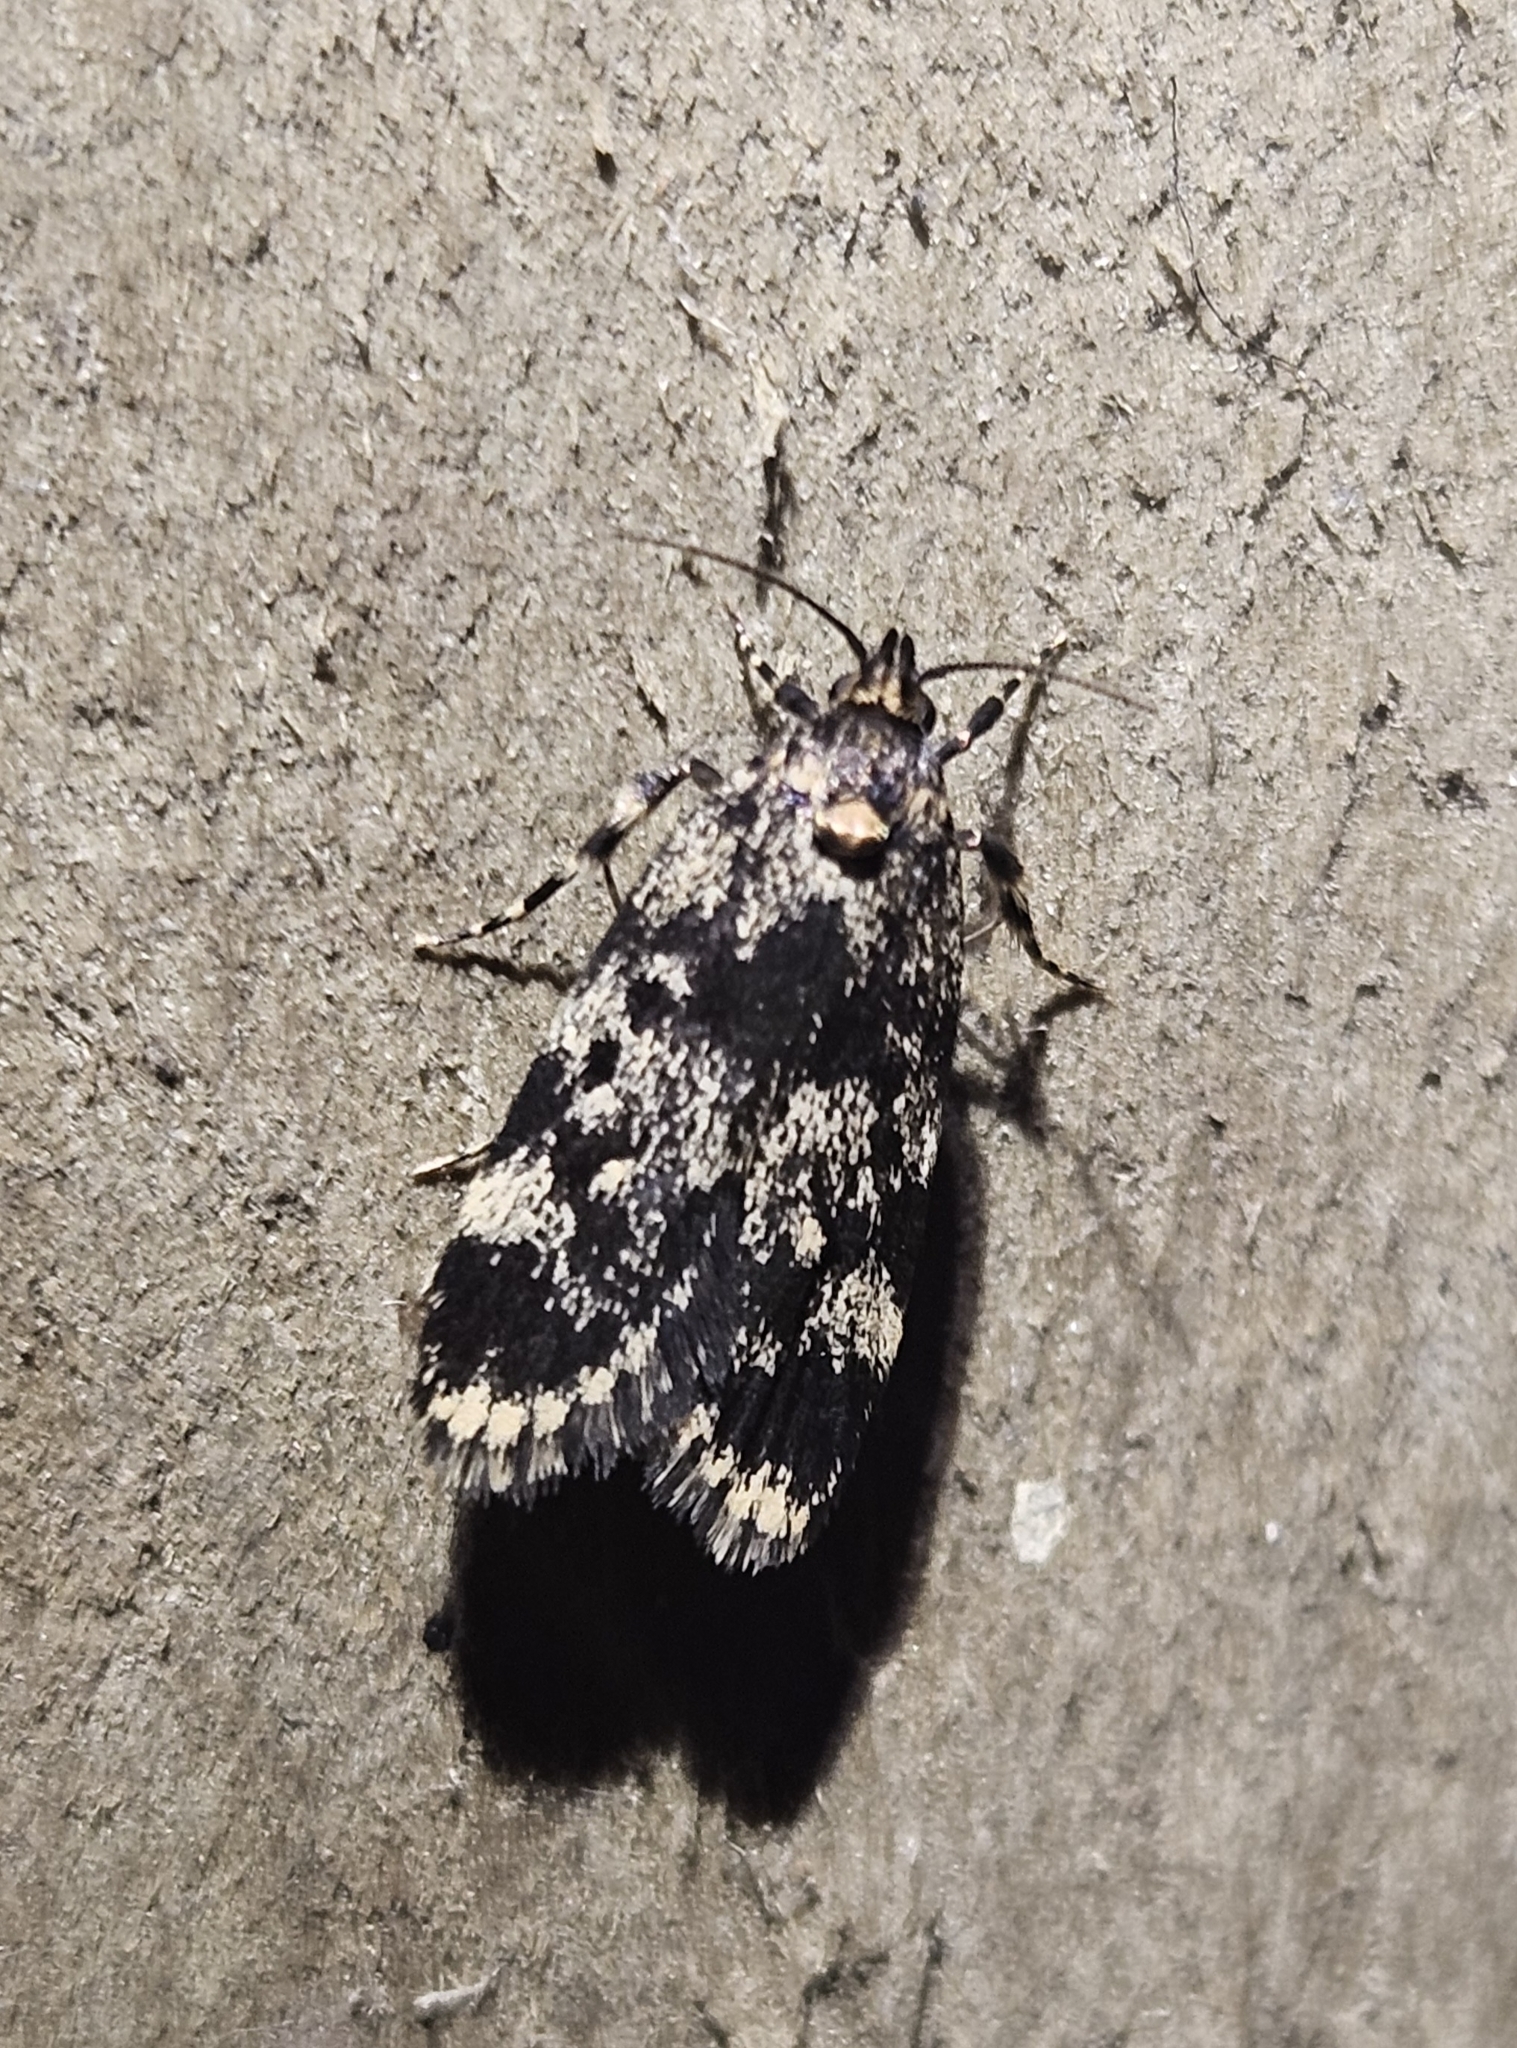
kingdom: Animalia
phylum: Arthropoda
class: Insecta
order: Lepidoptera
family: Oecophoridae
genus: Barea
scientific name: Barea codrella
